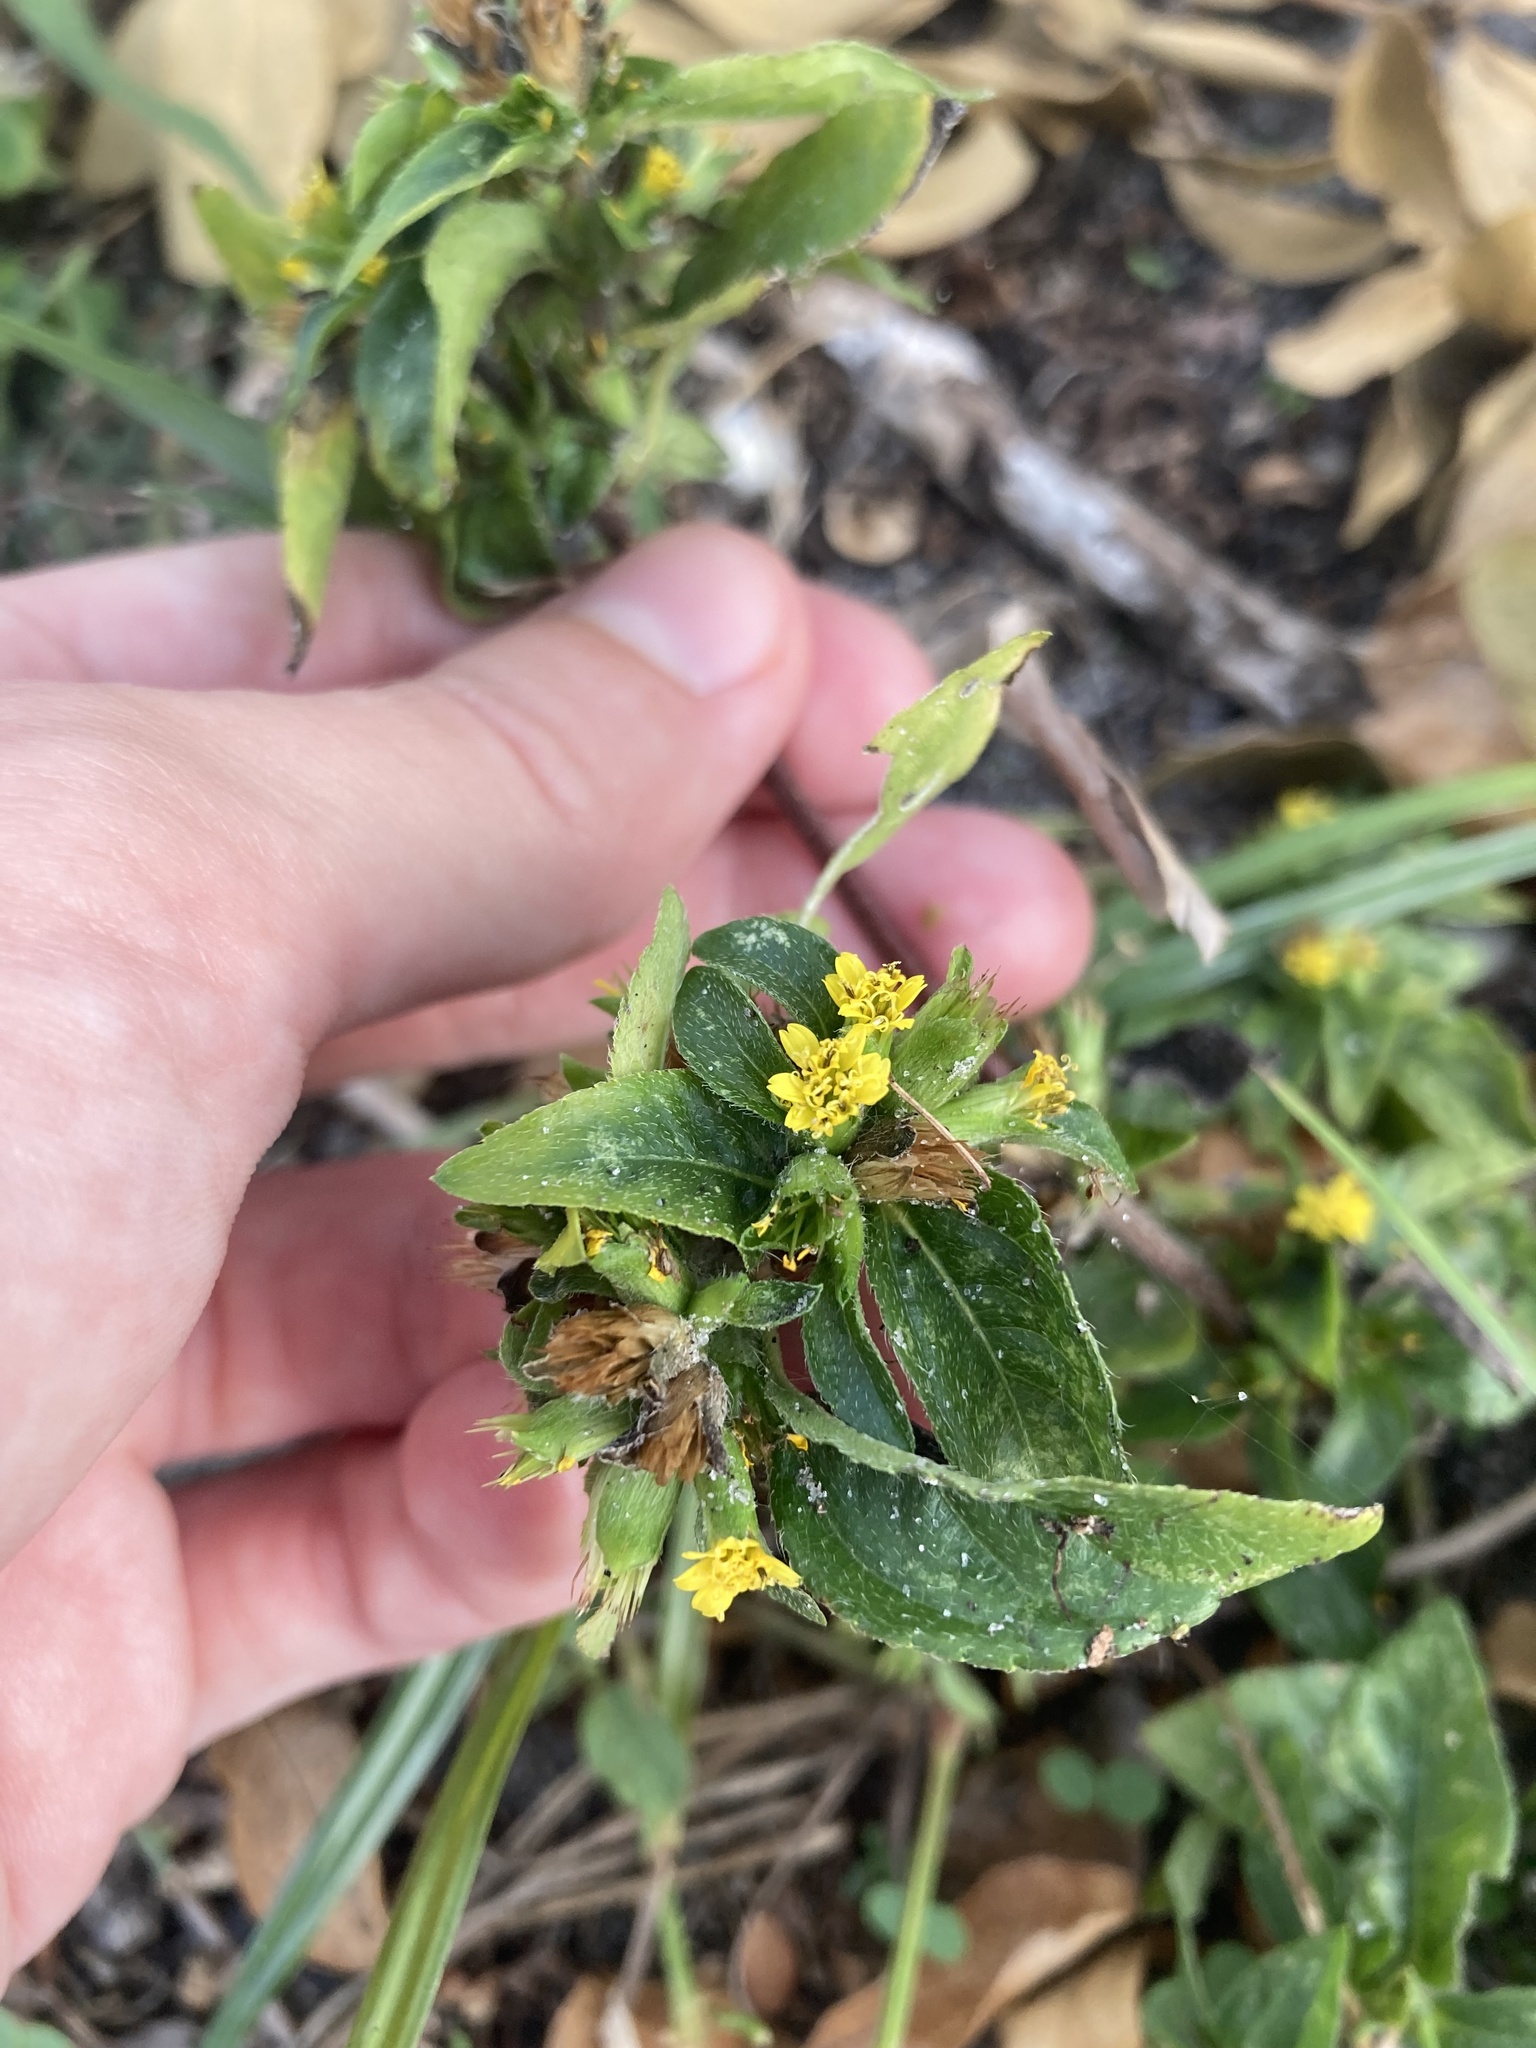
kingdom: Plantae
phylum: Tracheophyta
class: Magnoliopsida
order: Asterales
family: Asteraceae
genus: Synedrella
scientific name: Synedrella nodiflora
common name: Nodeweed
